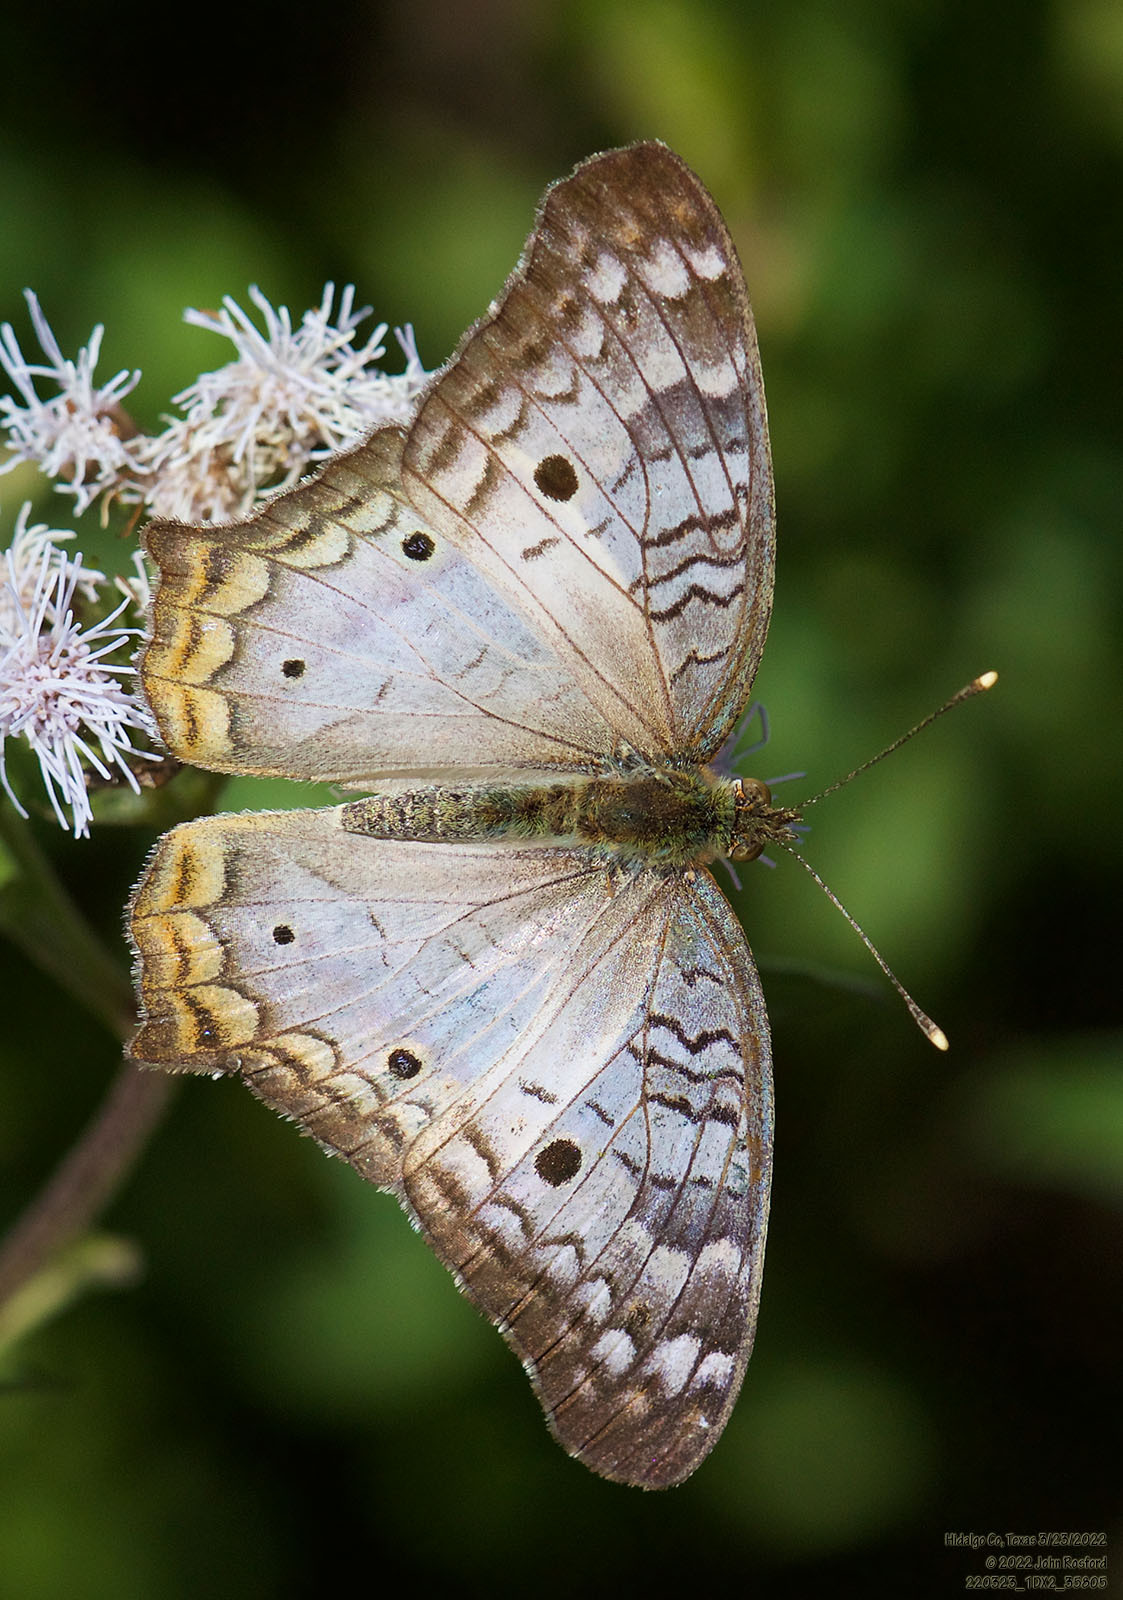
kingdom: Animalia
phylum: Arthropoda
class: Insecta
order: Lepidoptera
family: Nymphalidae
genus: Anartia
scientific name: Anartia jatrophae
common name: White peacock
